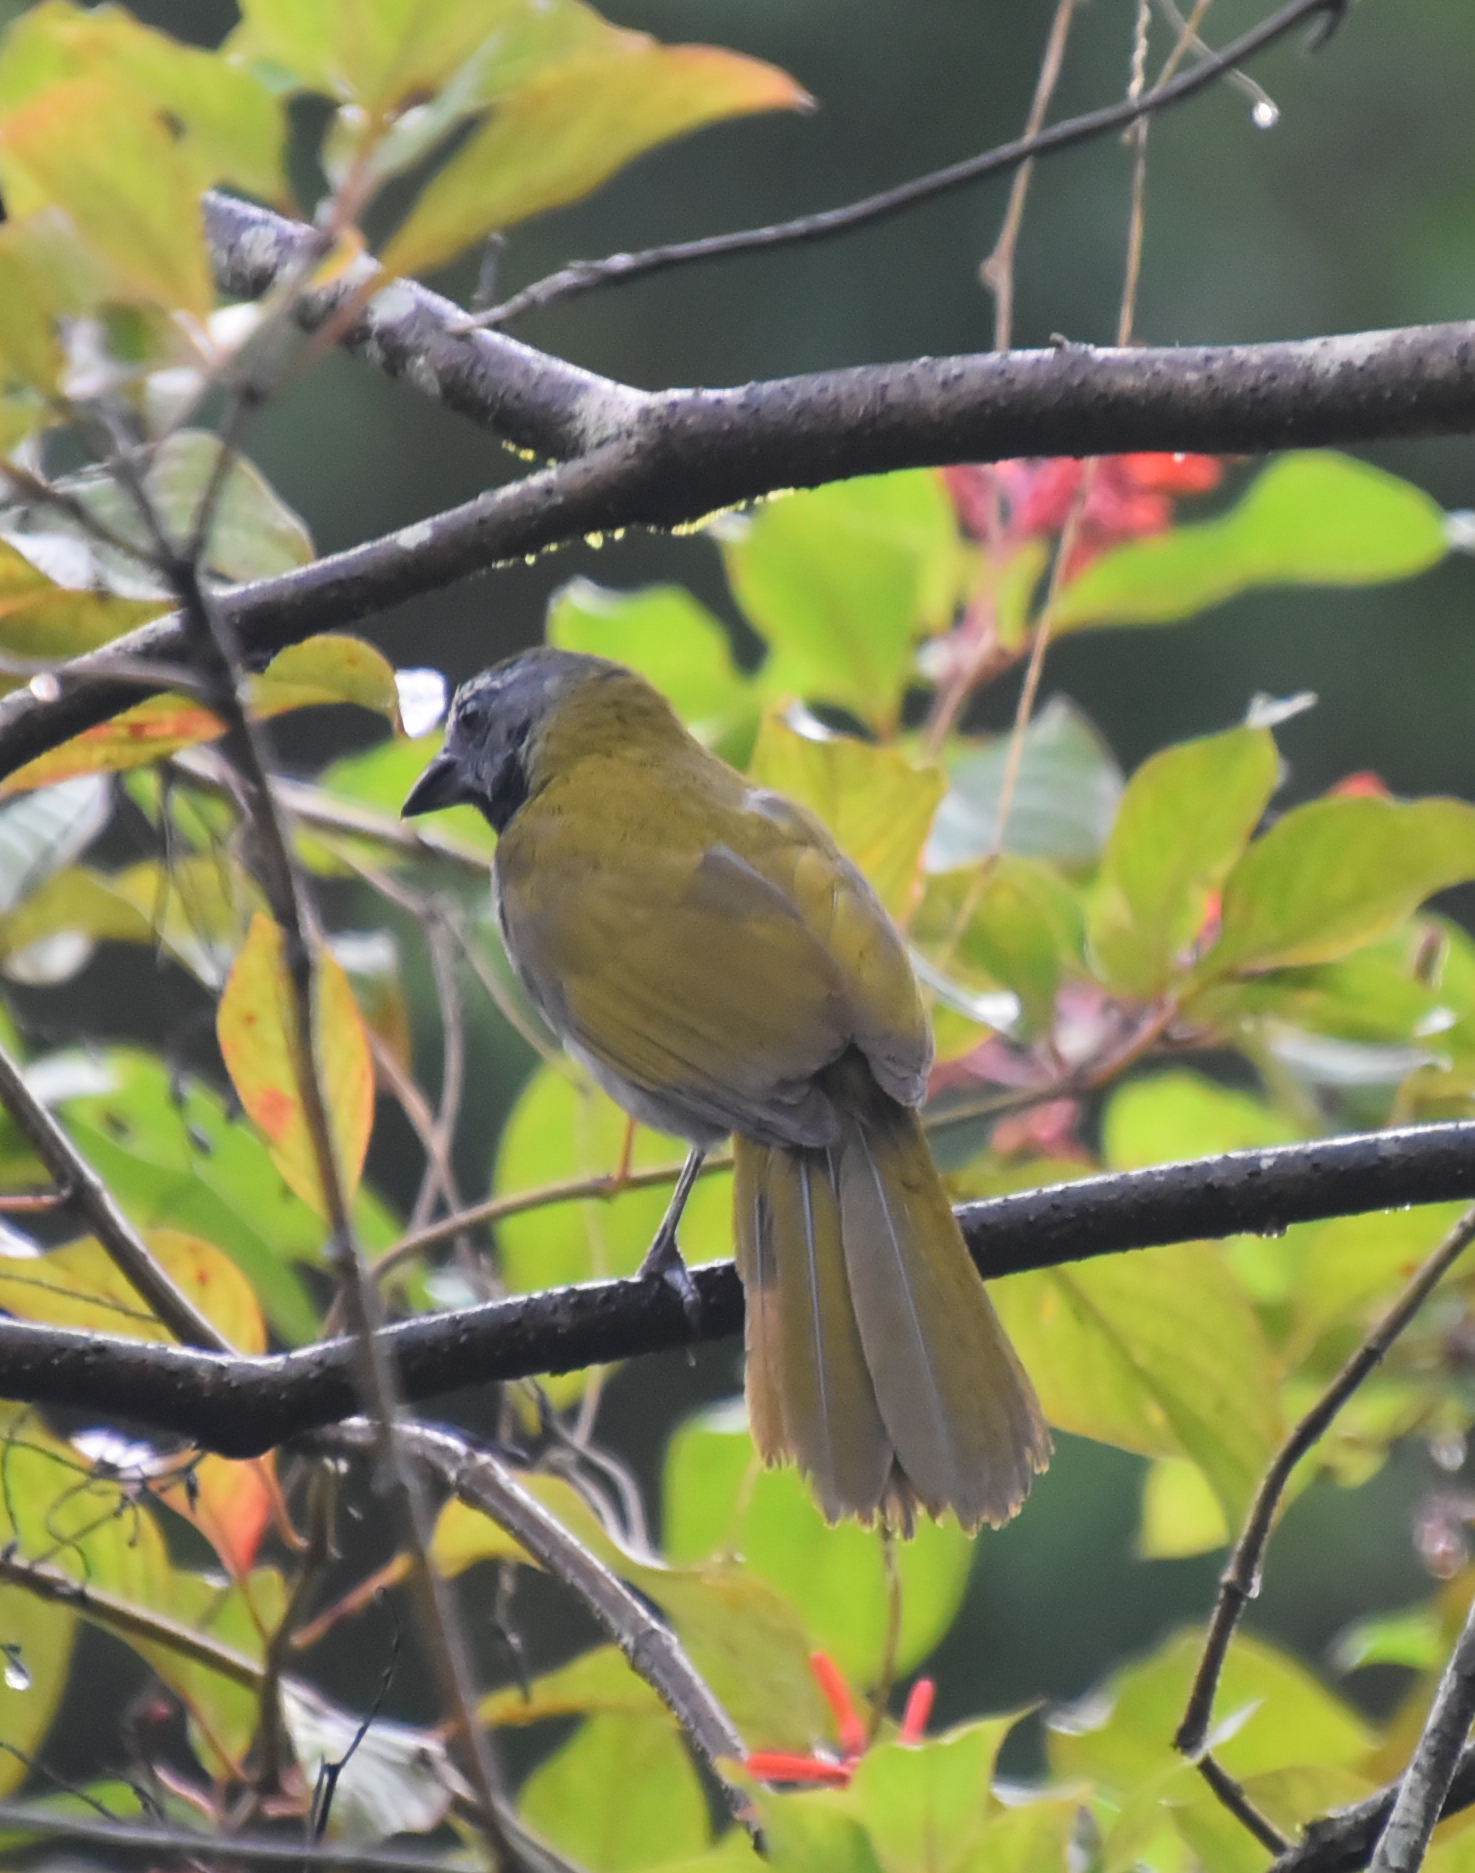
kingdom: Animalia
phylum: Chordata
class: Aves
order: Passeriformes
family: Thraupidae
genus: Saltator
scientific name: Saltator maximus
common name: Buff-throated saltator
